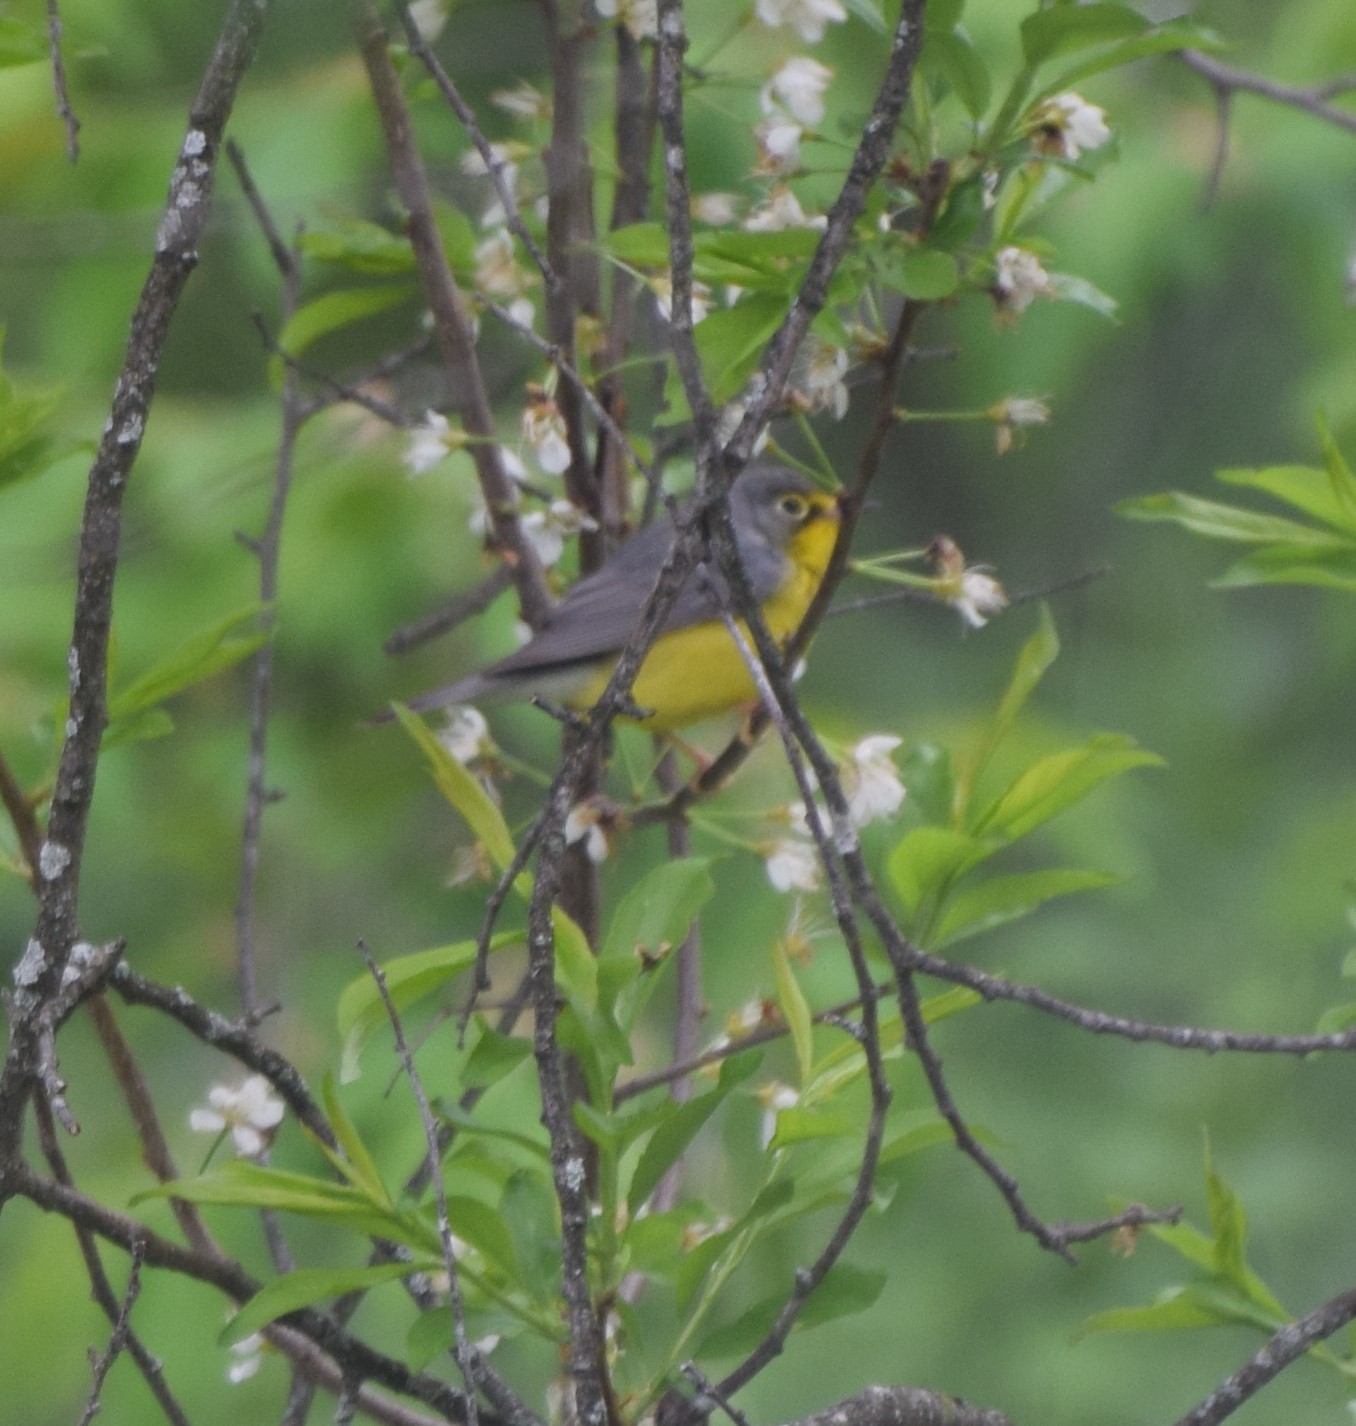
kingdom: Animalia
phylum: Chordata
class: Aves
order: Passeriformes
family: Parulidae
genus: Cardellina
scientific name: Cardellina canadensis
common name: Canada warbler
